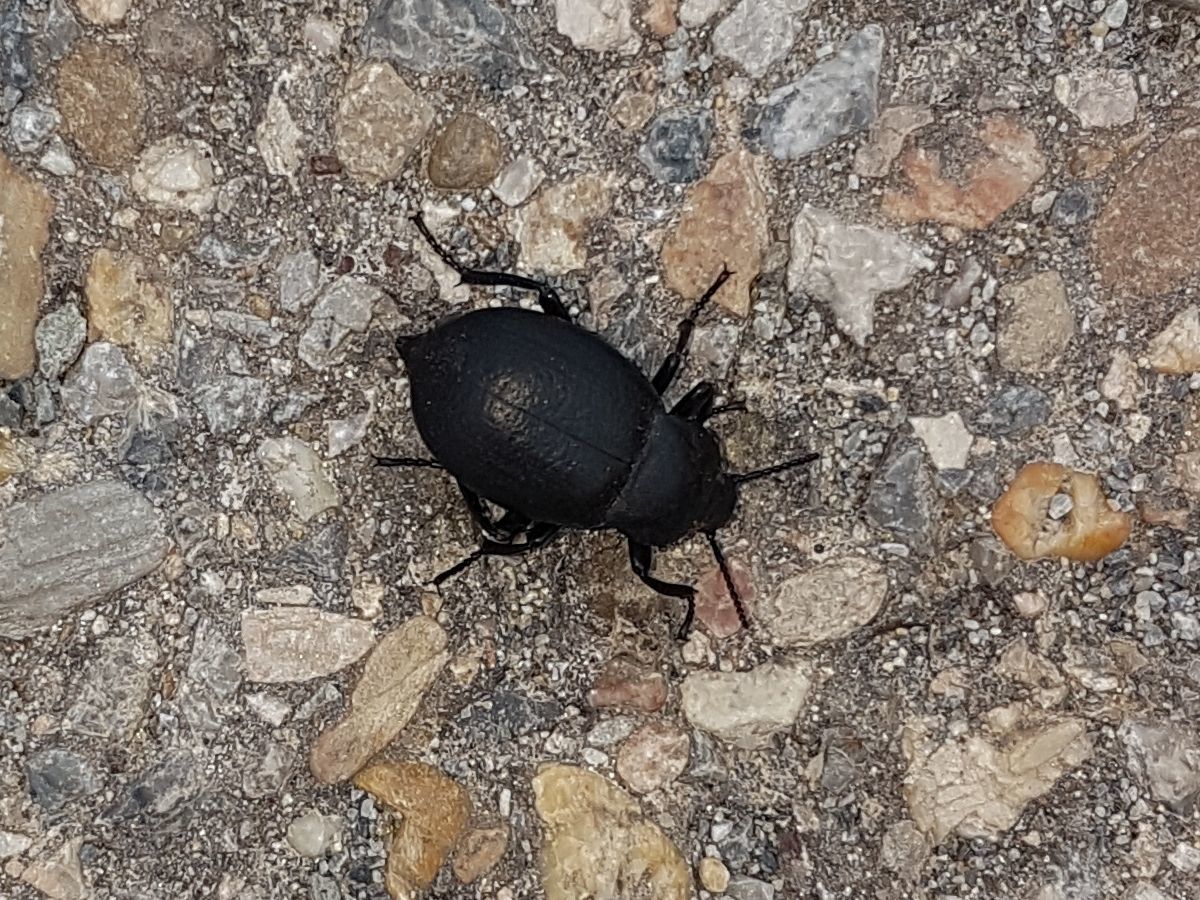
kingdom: Animalia
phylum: Arthropoda
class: Insecta
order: Coleoptera
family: Tenebrionidae
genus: Blaps
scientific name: Blaps abbreviata
